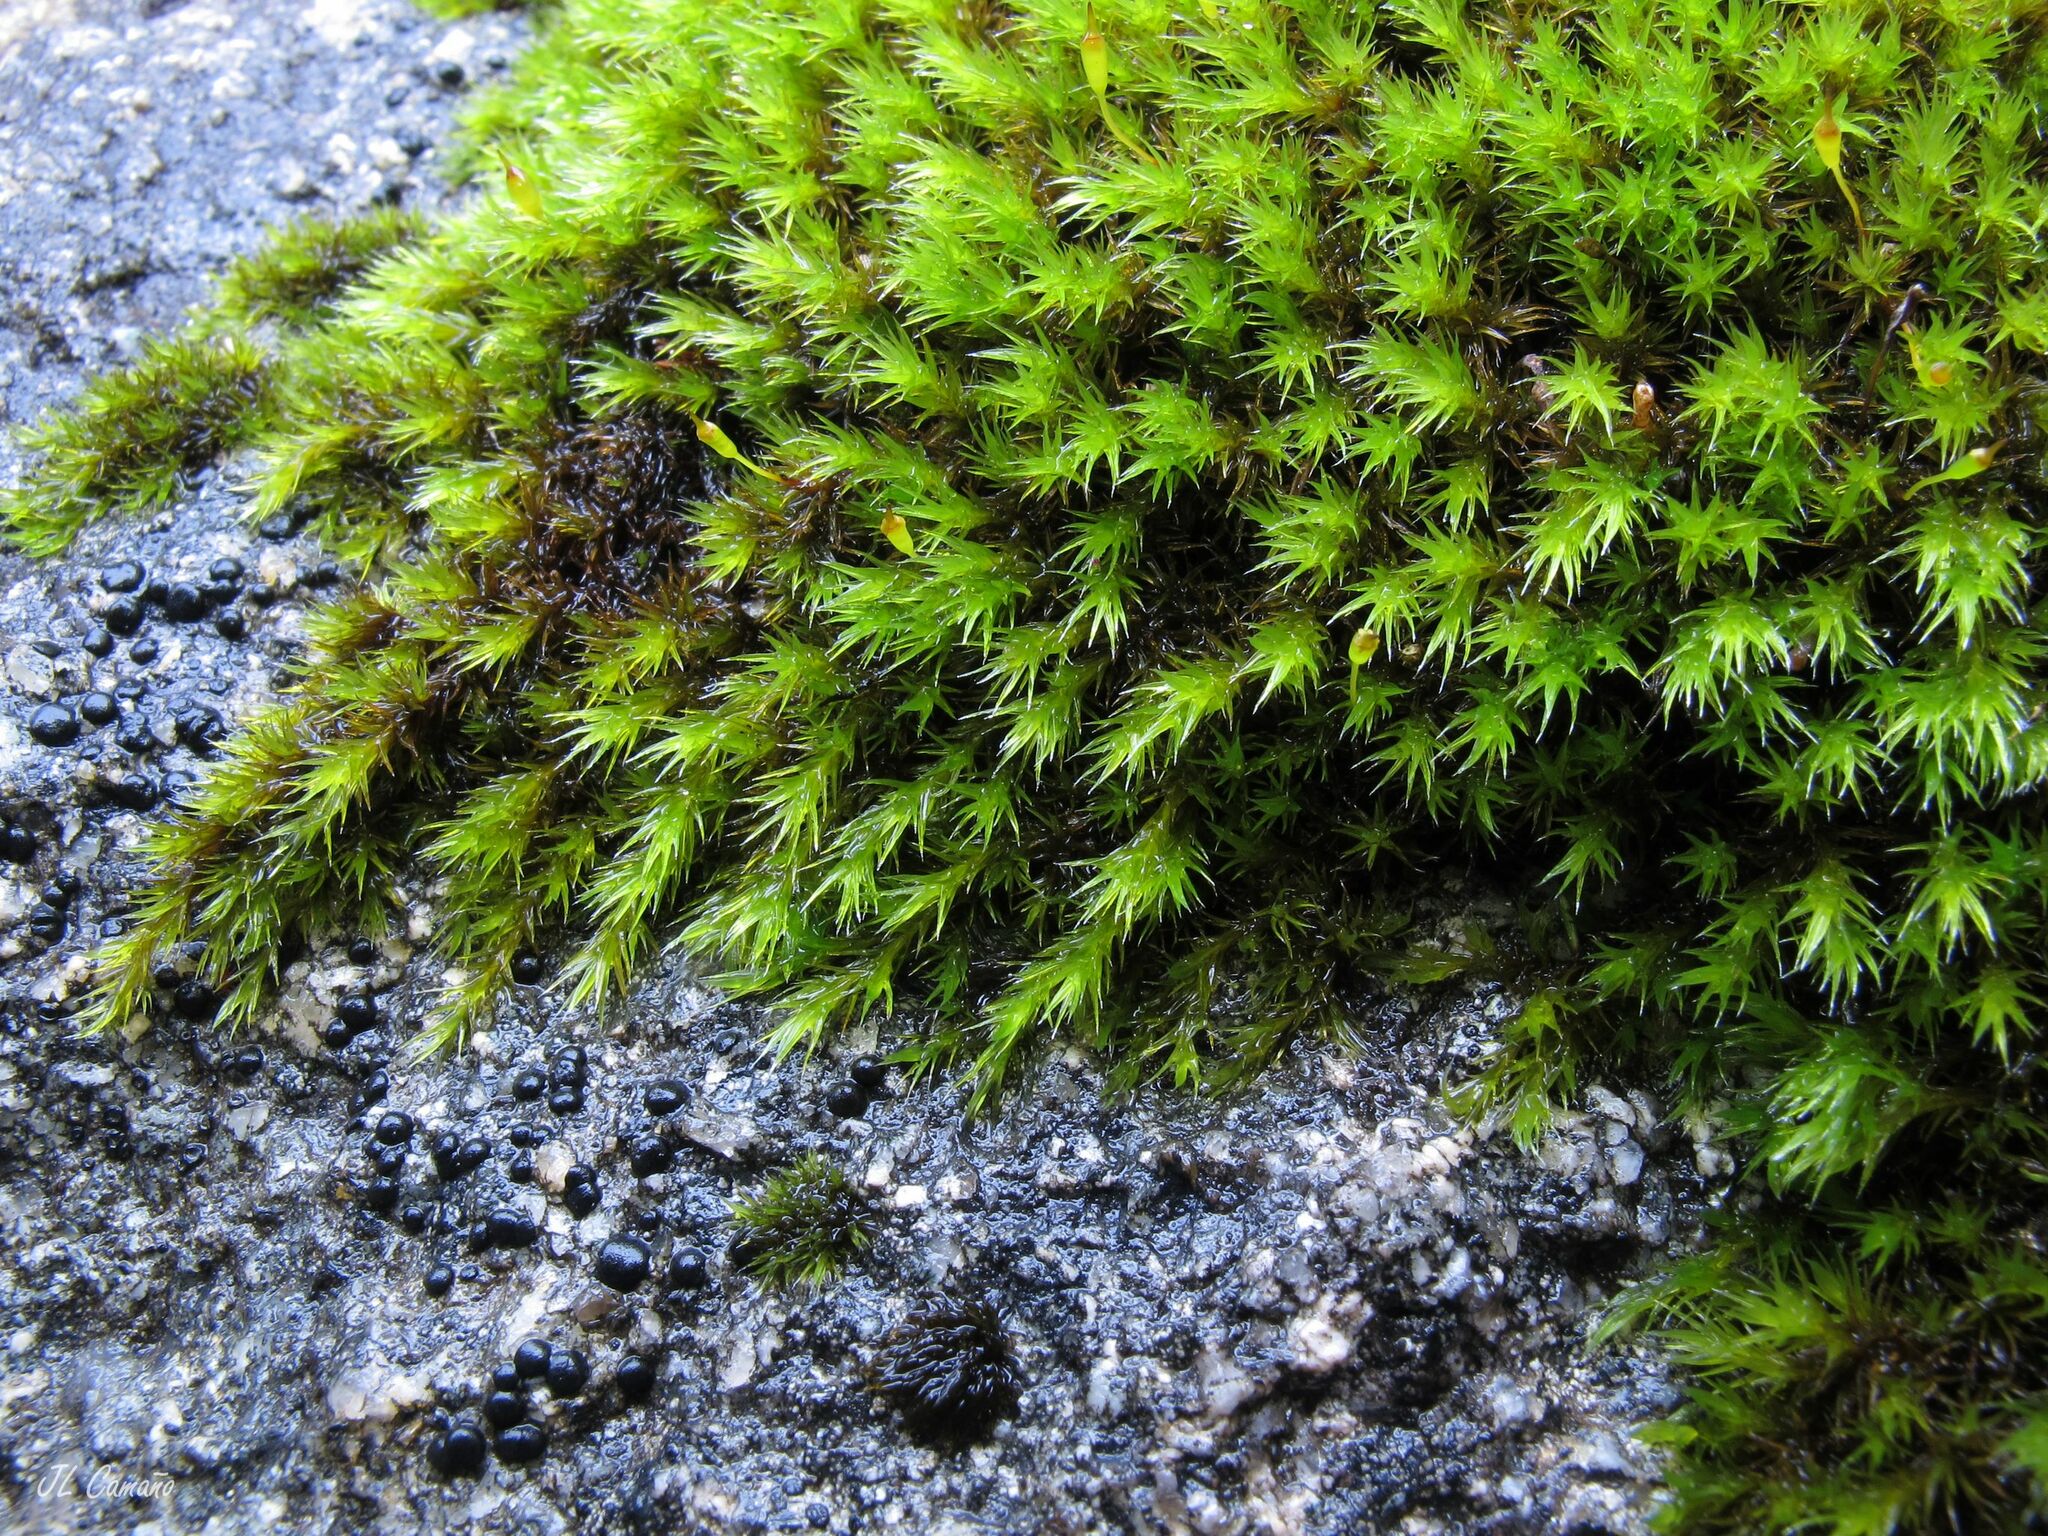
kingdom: Plantae
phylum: Bryophyta
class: Bryopsida
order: Grimmiales
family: Grimmiaceae
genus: Bucklandiella
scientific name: Bucklandiella sudetica
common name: Slender fringe-moss
